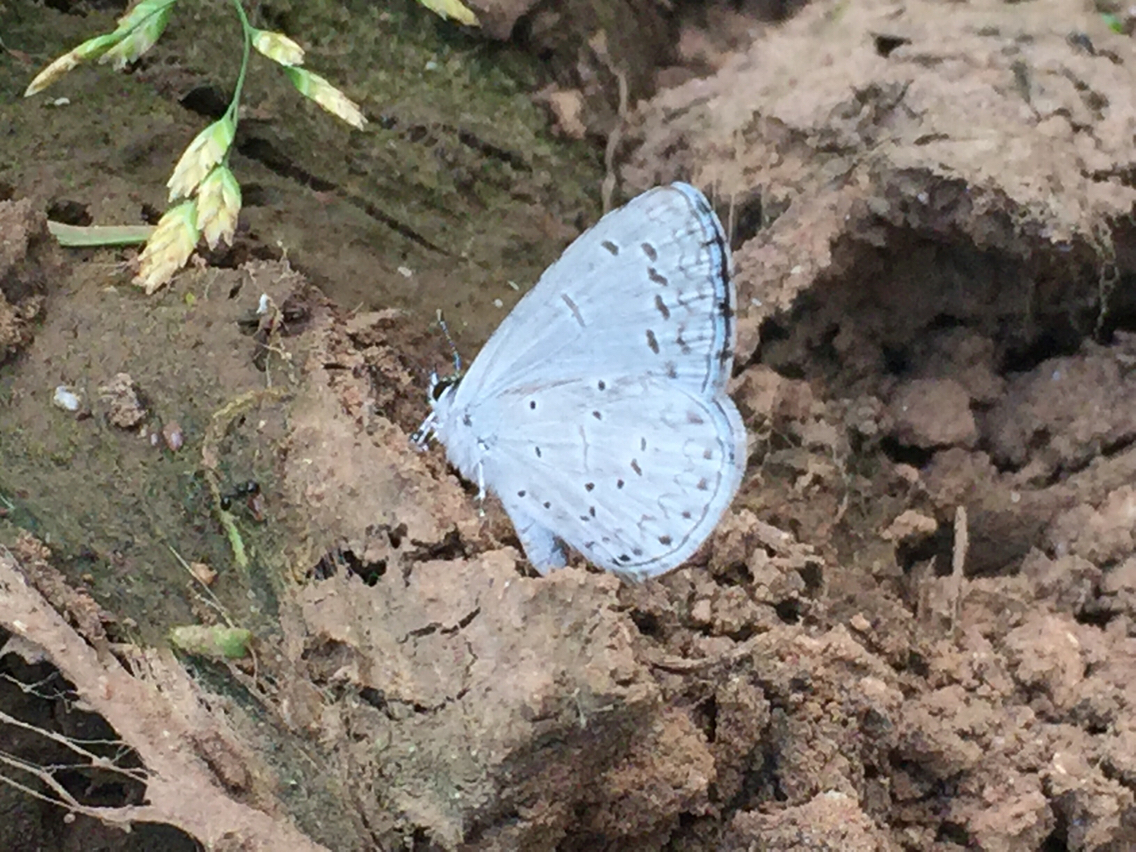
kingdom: Animalia
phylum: Arthropoda
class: Insecta
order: Lepidoptera
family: Lycaenidae
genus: Celastrina
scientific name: Celastrina argiolus
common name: Holly blue
